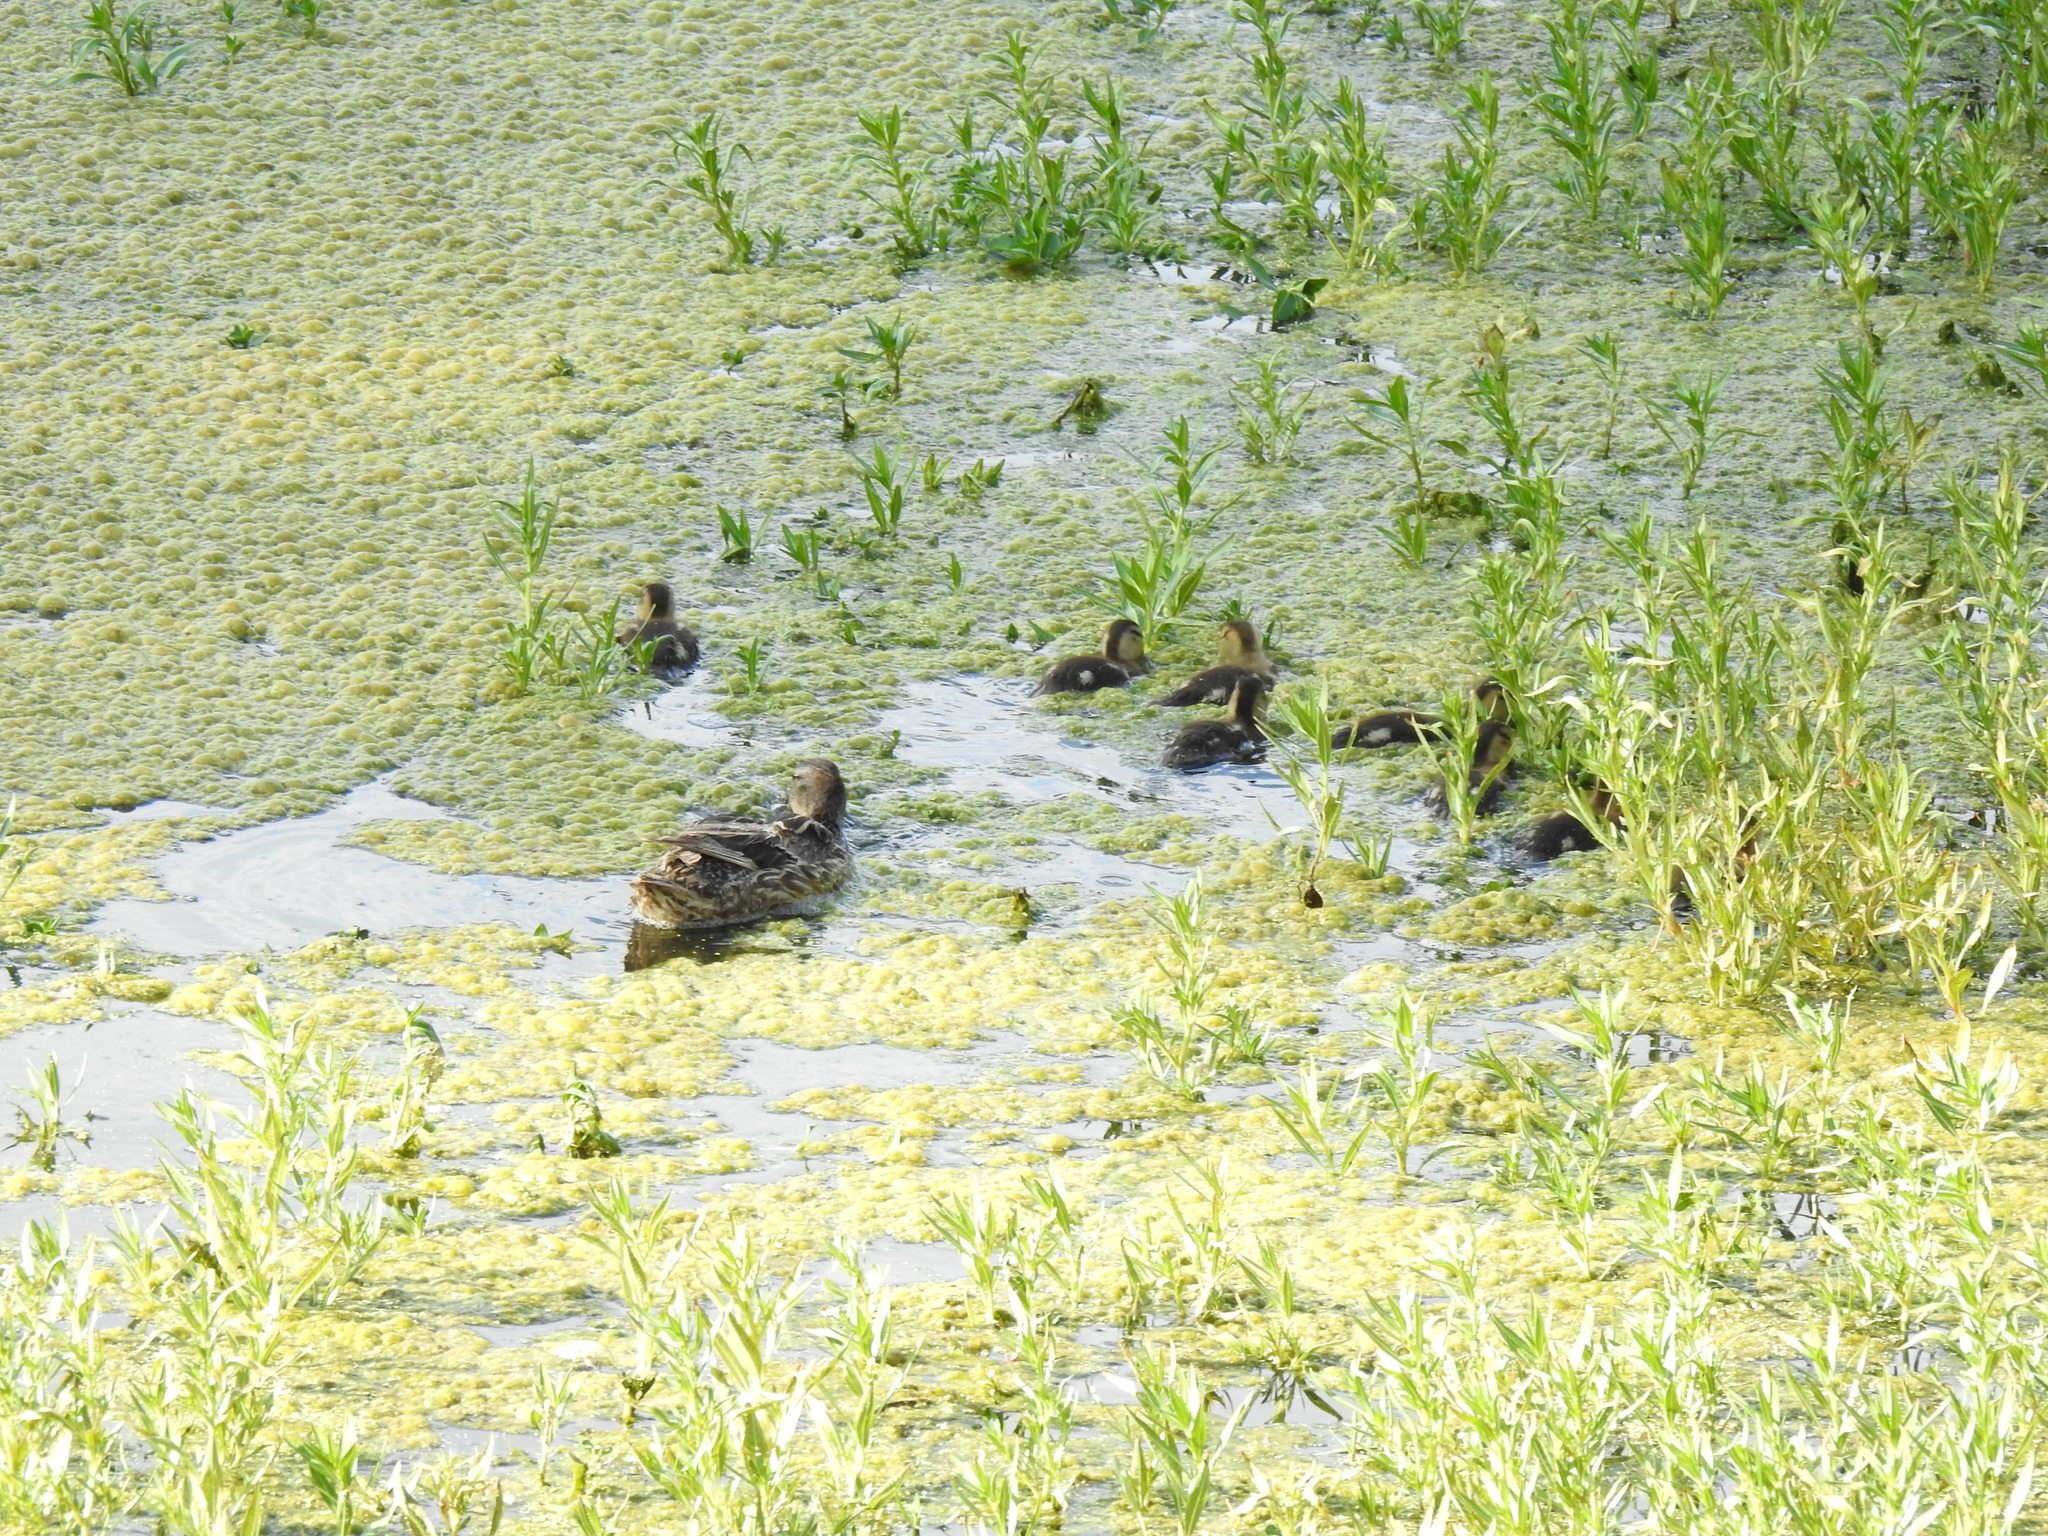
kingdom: Animalia
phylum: Chordata
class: Aves
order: Anseriformes
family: Anatidae
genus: Anas
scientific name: Anas platyrhynchos
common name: Mallard
